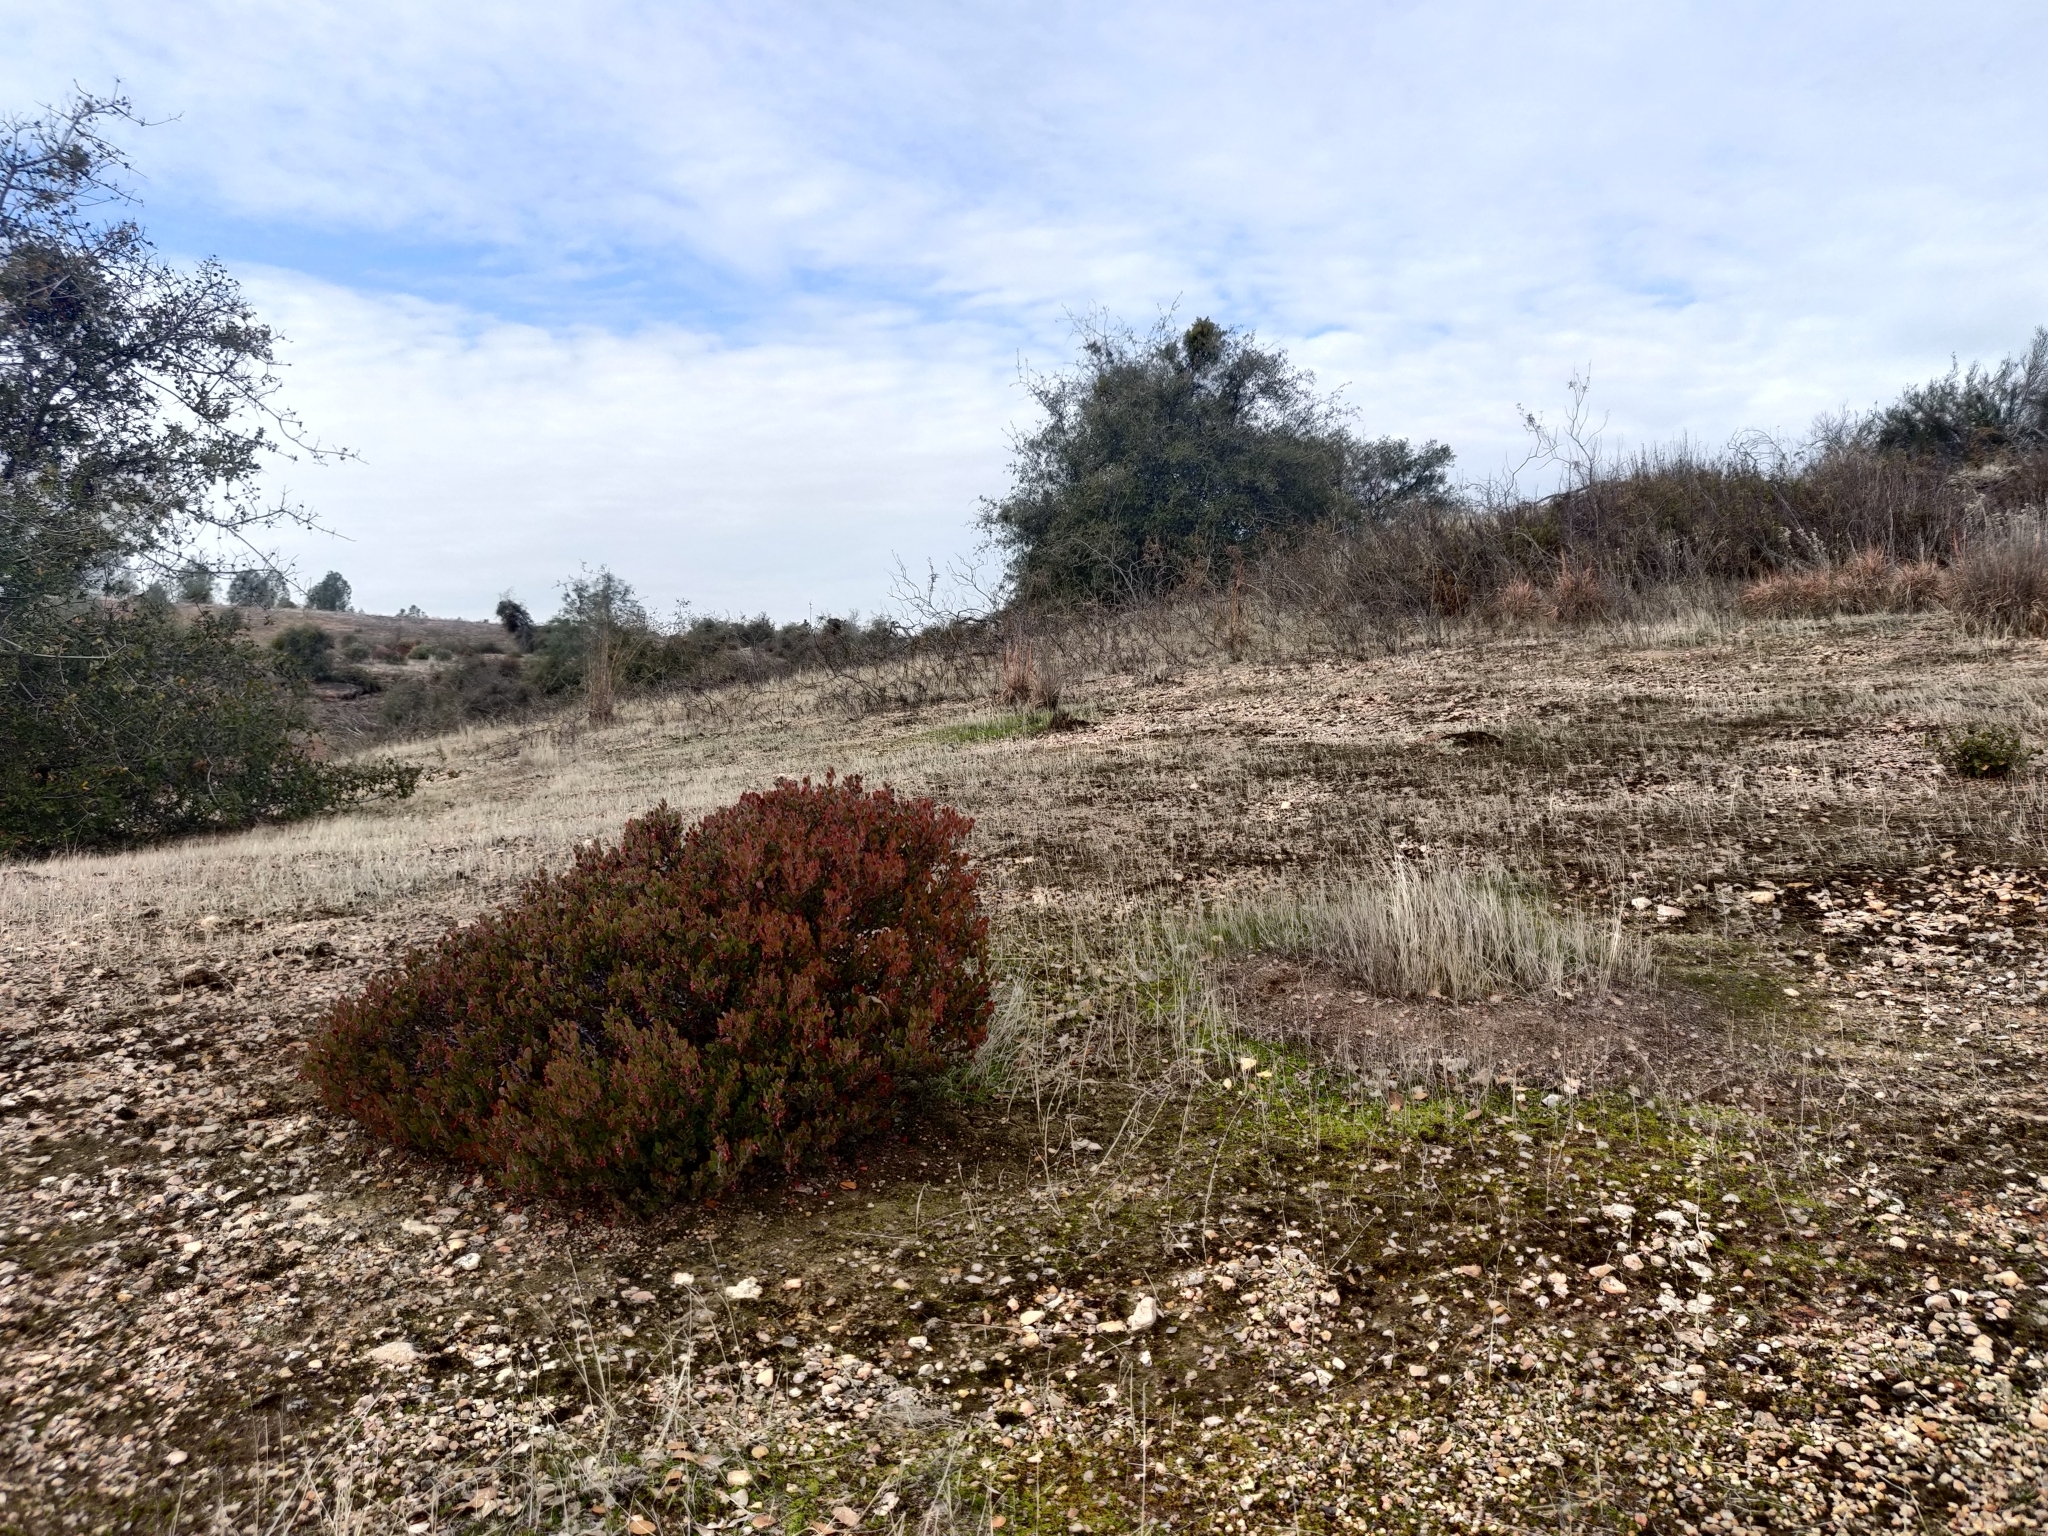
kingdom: Plantae
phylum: Tracheophyta
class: Magnoliopsida
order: Ericales
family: Ericaceae
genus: Arctostaphylos
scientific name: Arctostaphylos myrtifolia
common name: Ione manzanita
